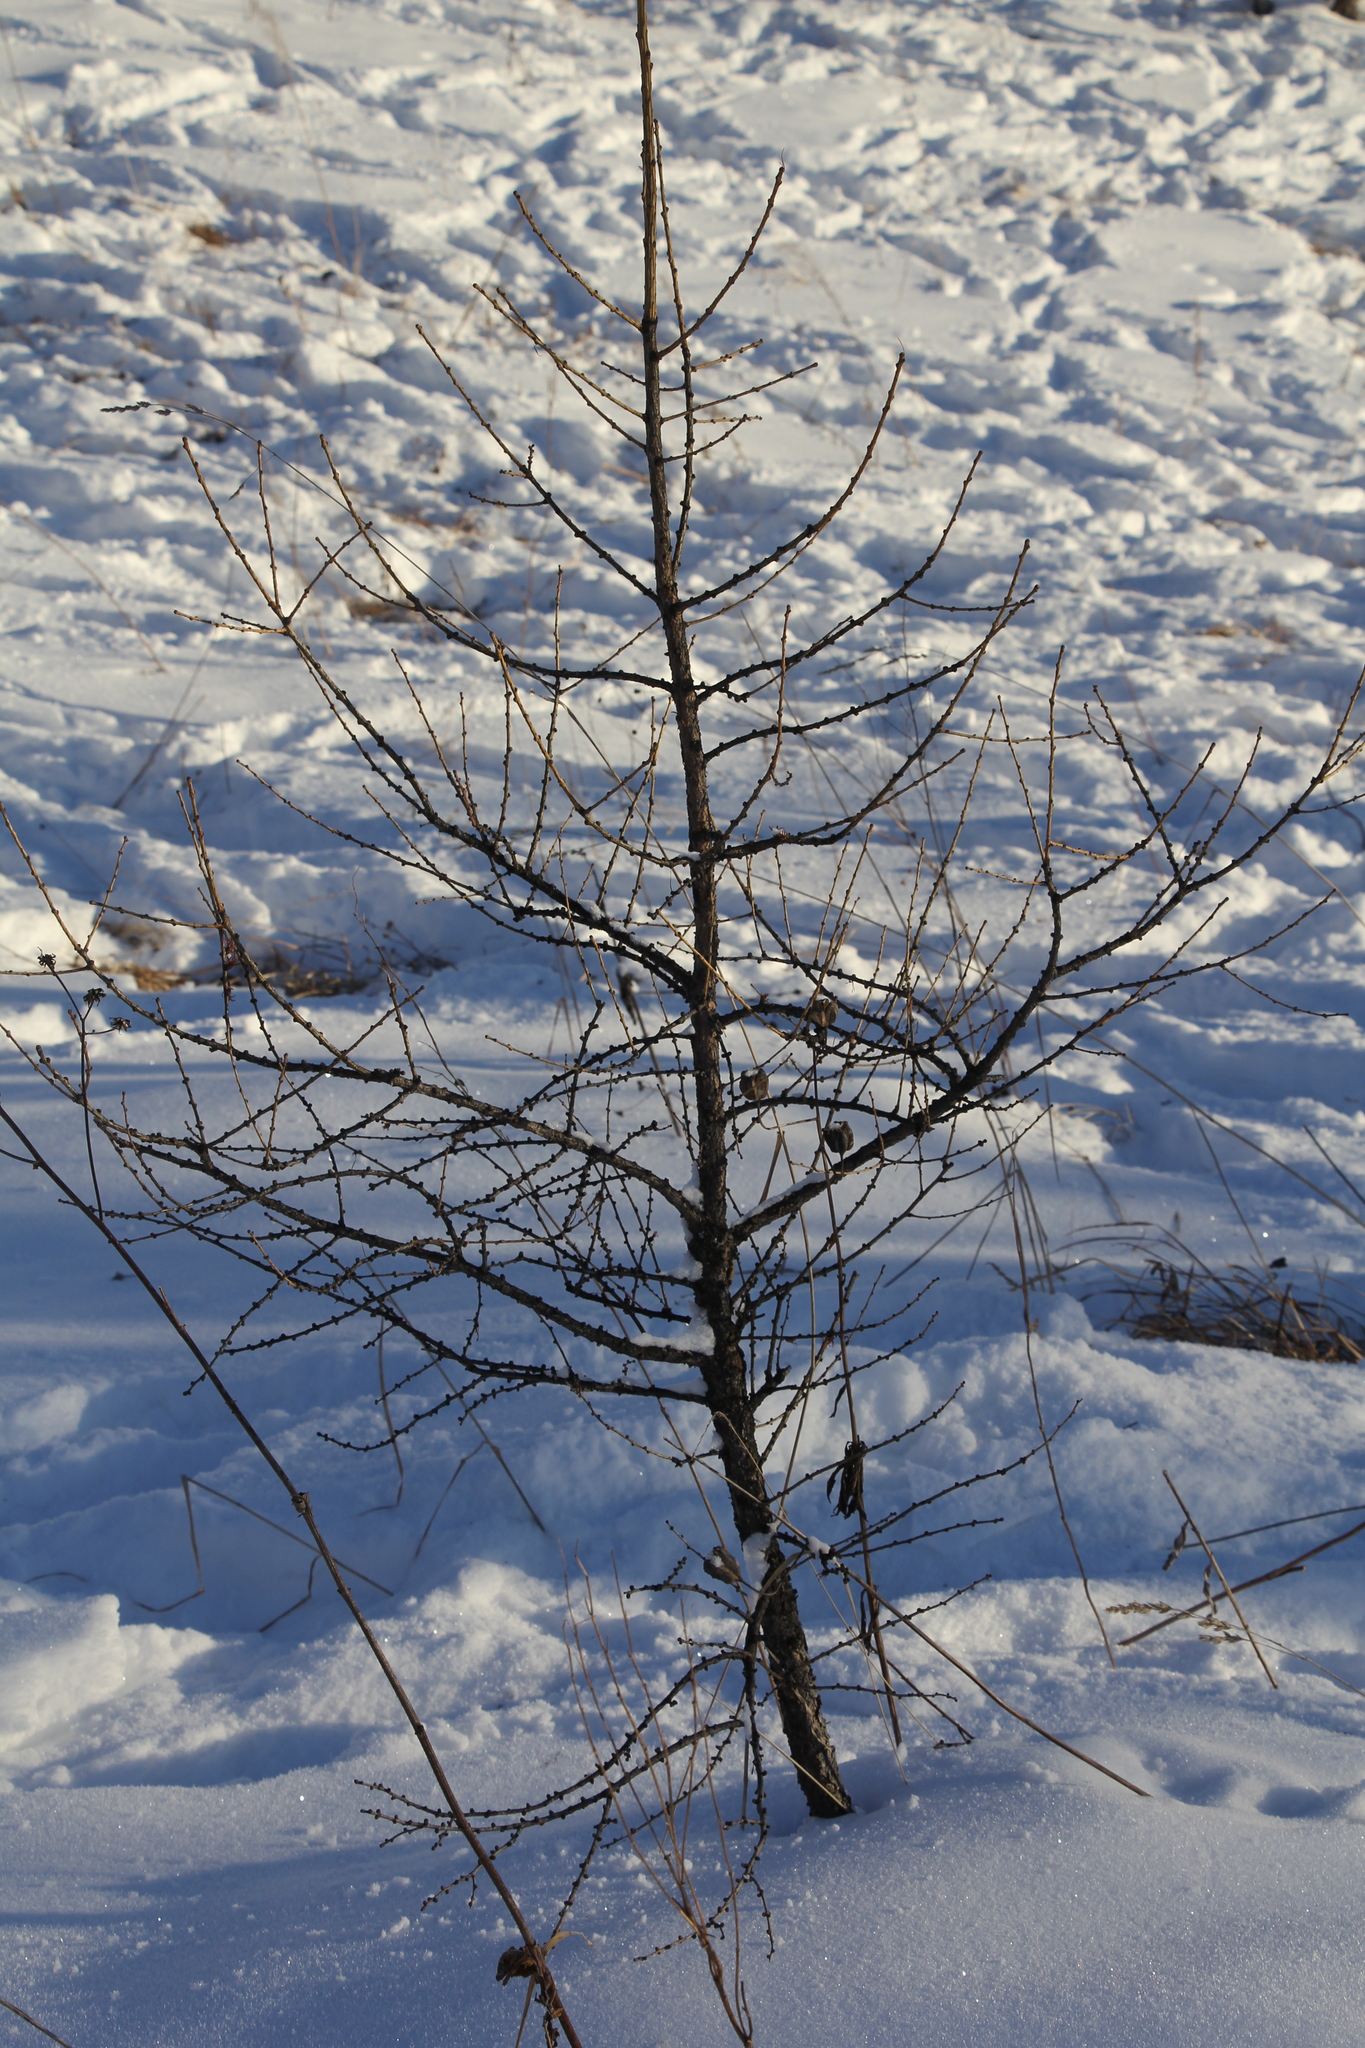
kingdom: Plantae
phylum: Tracheophyta
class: Pinopsida
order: Pinales
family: Pinaceae
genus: Larix
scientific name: Larix sibirica
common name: Siberian larch
